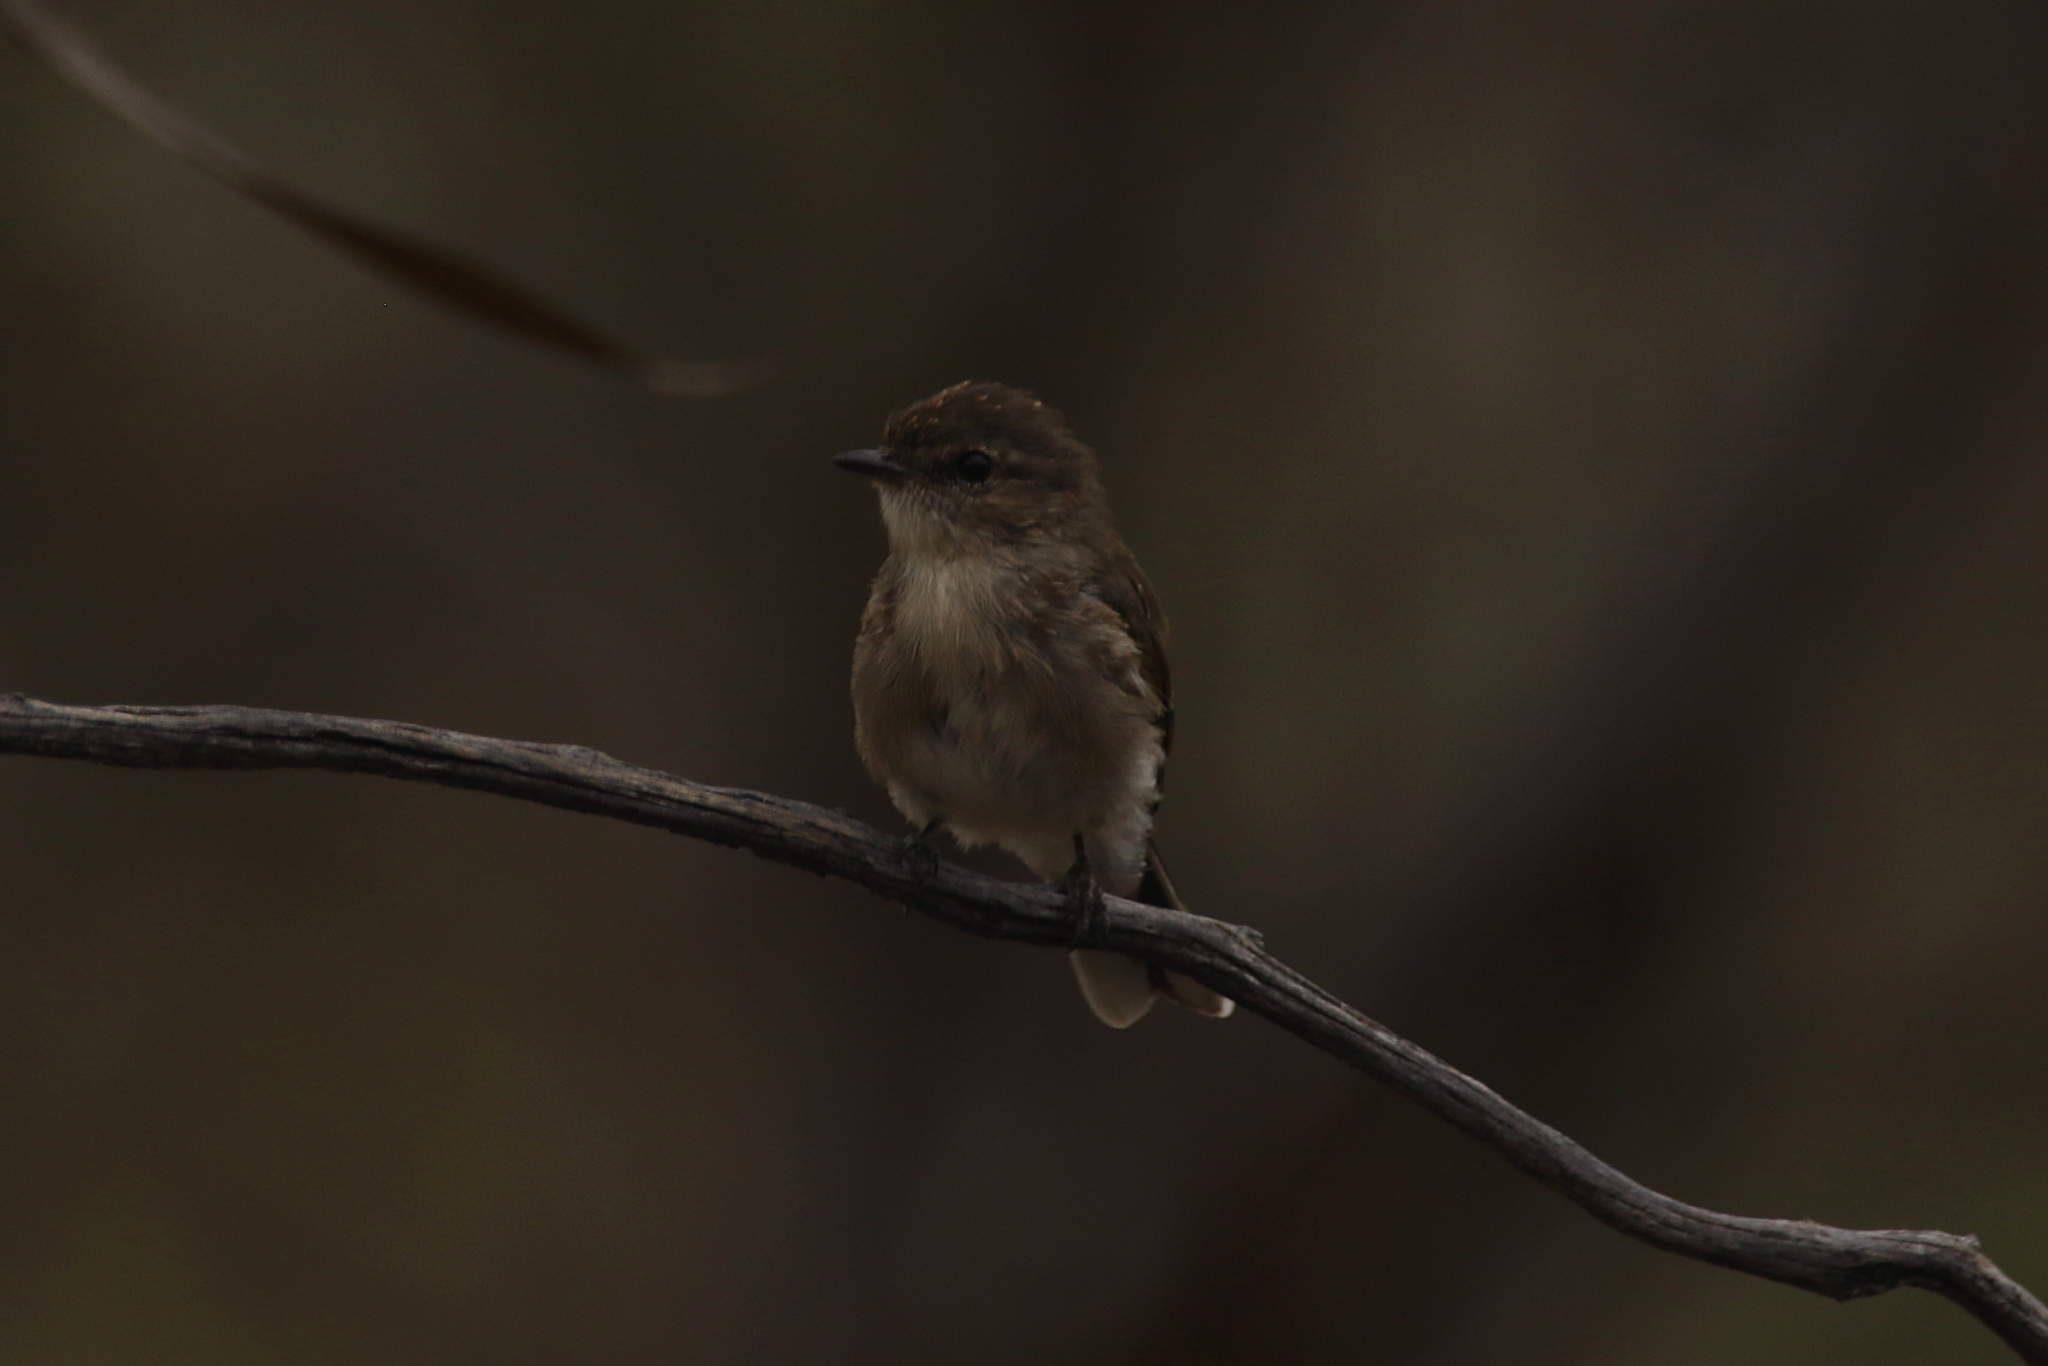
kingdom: Animalia
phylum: Chordata
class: Aves
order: Passeriformes
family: Petroicidae
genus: Microeca
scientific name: Microeca fascinans
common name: Jacky winter
